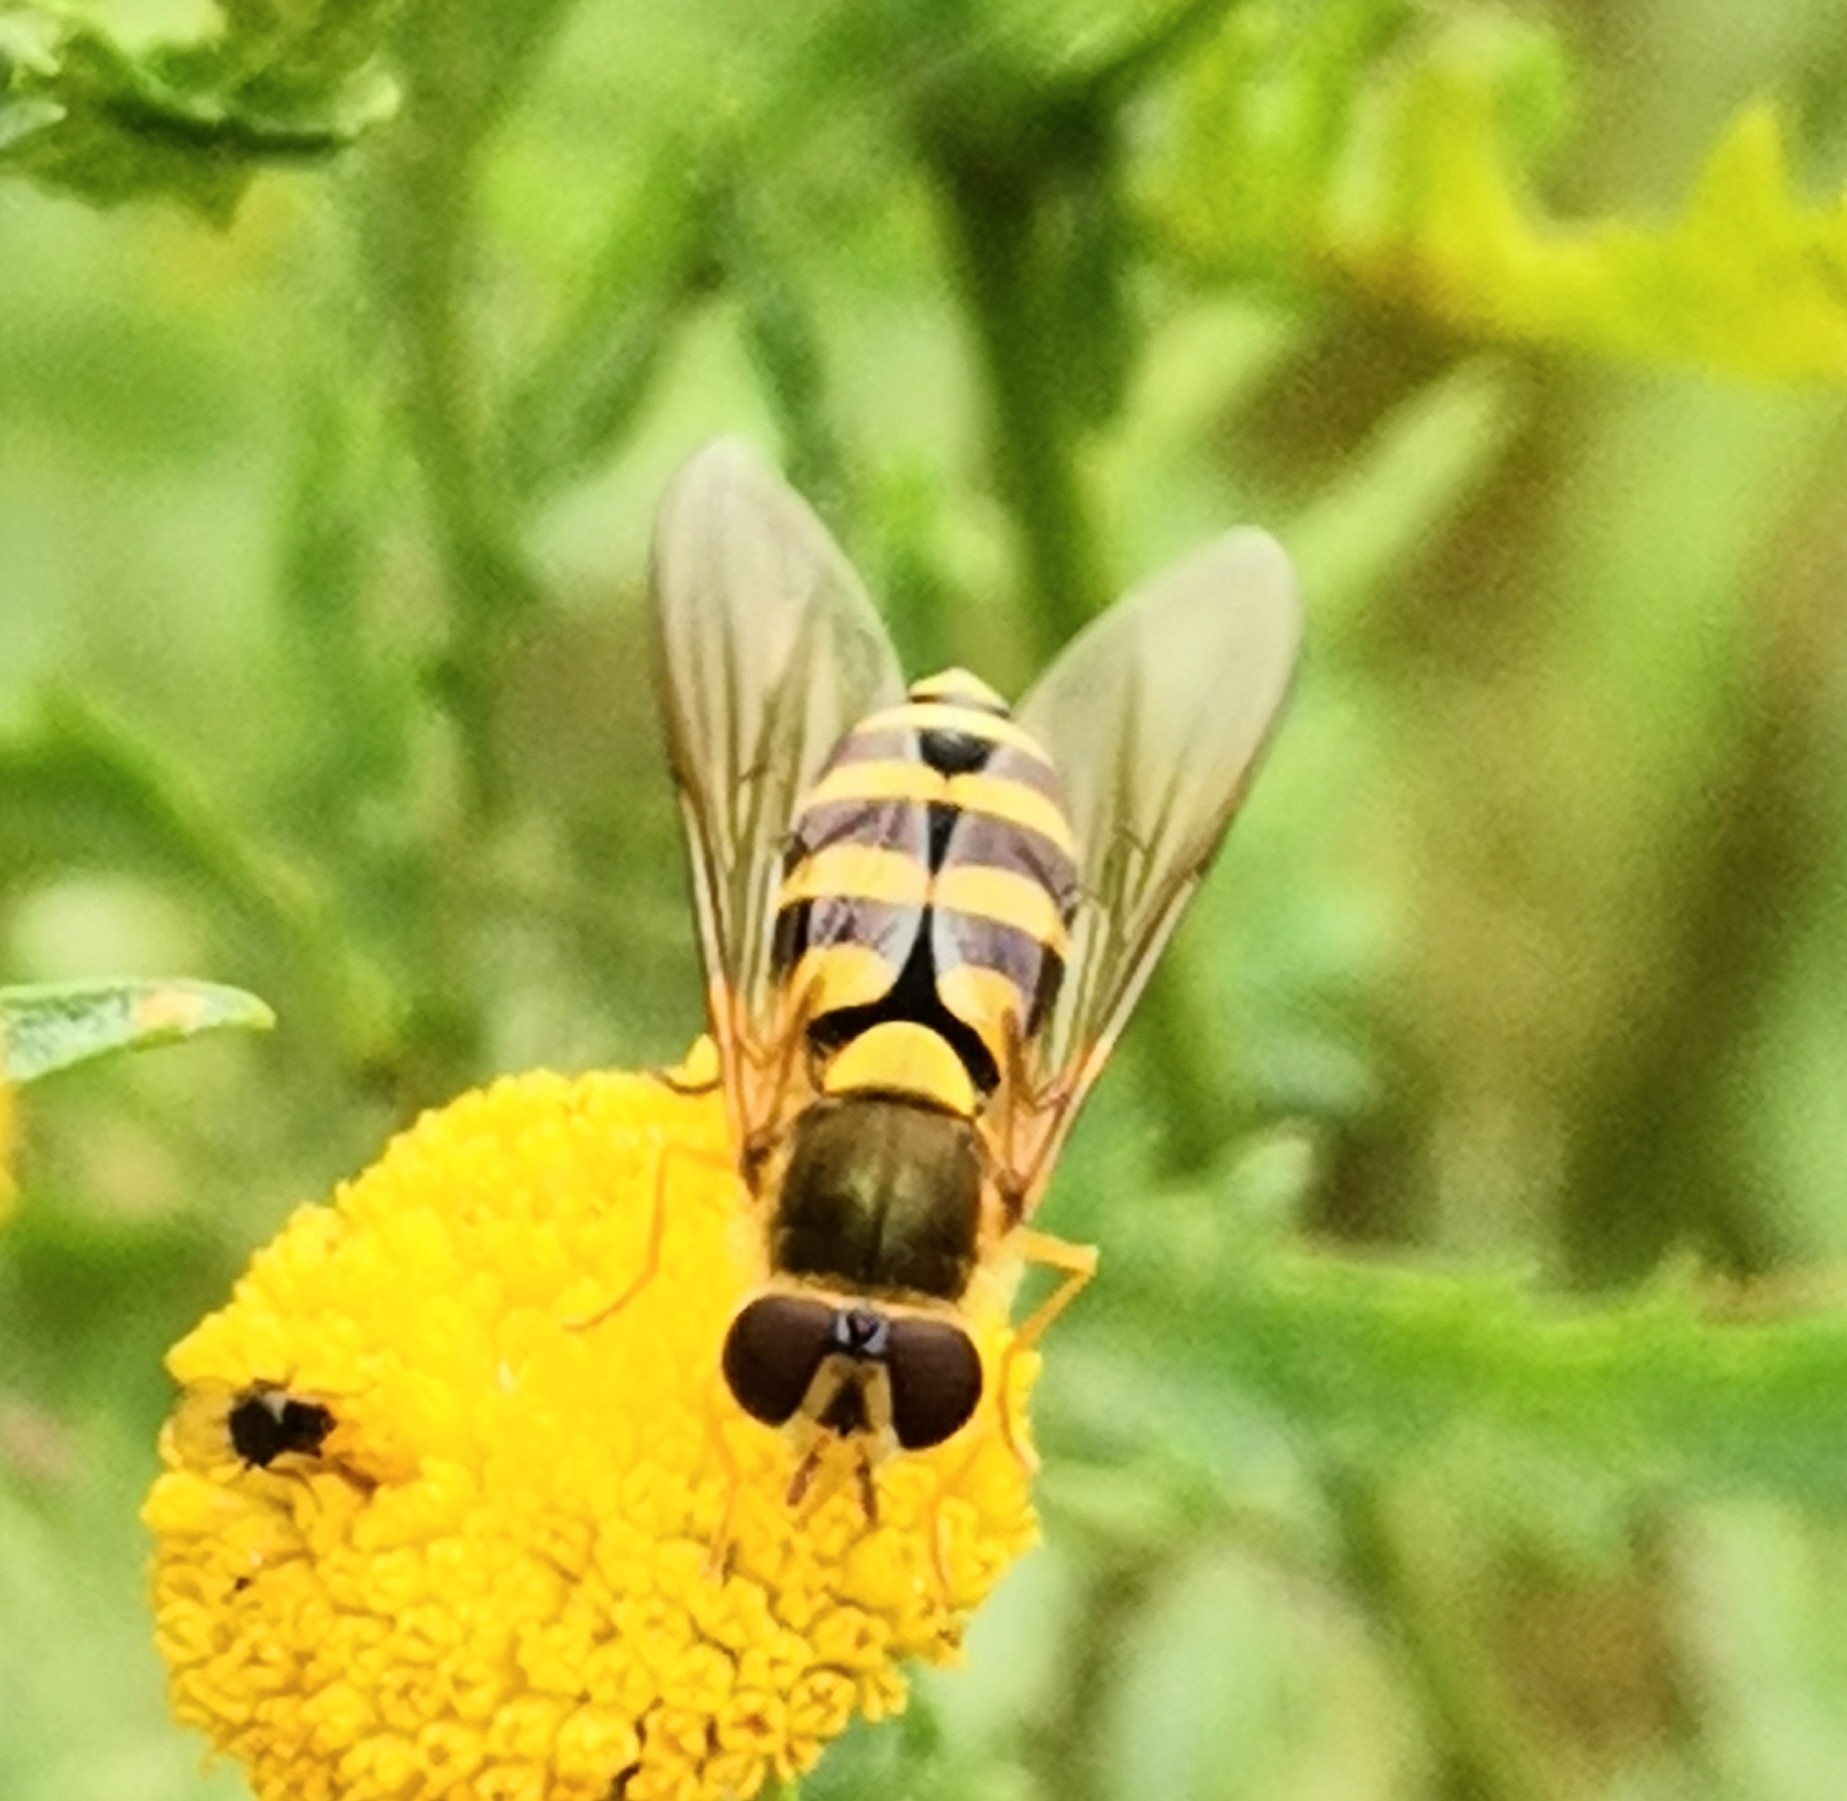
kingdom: Animalia
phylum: Arthropoda
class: Insecta
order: Diptera
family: Syrphidae
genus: Syrphus
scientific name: Syrphus
